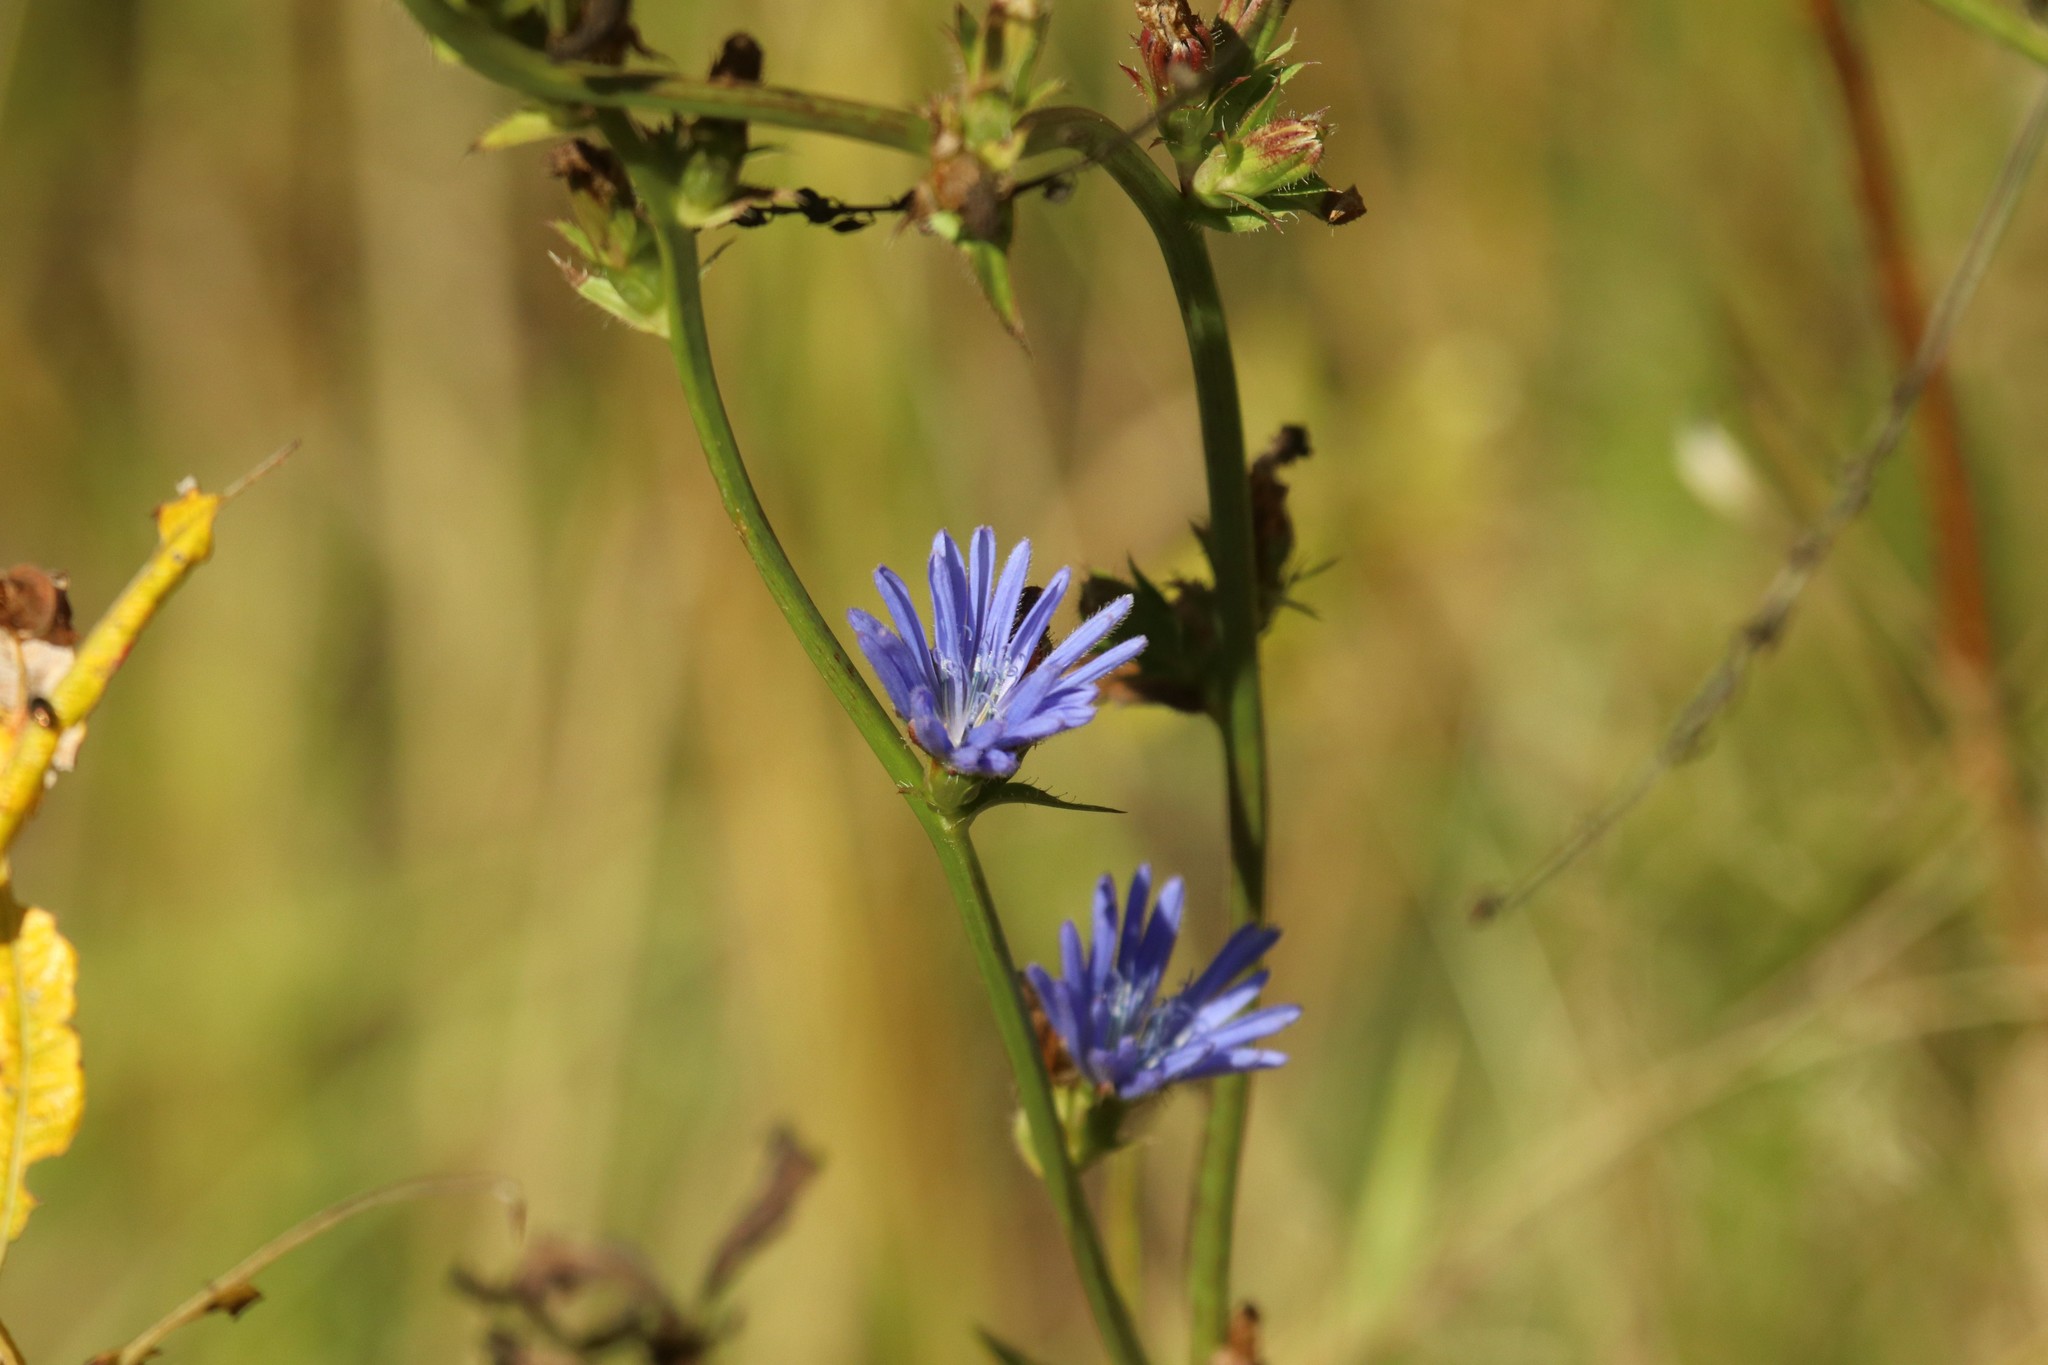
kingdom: Plantae
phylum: Tracheophyta
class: Magnoliopsida
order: Asterales
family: Asteraceae
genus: Cichorium
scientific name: Cichorium intybus
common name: Chicory
